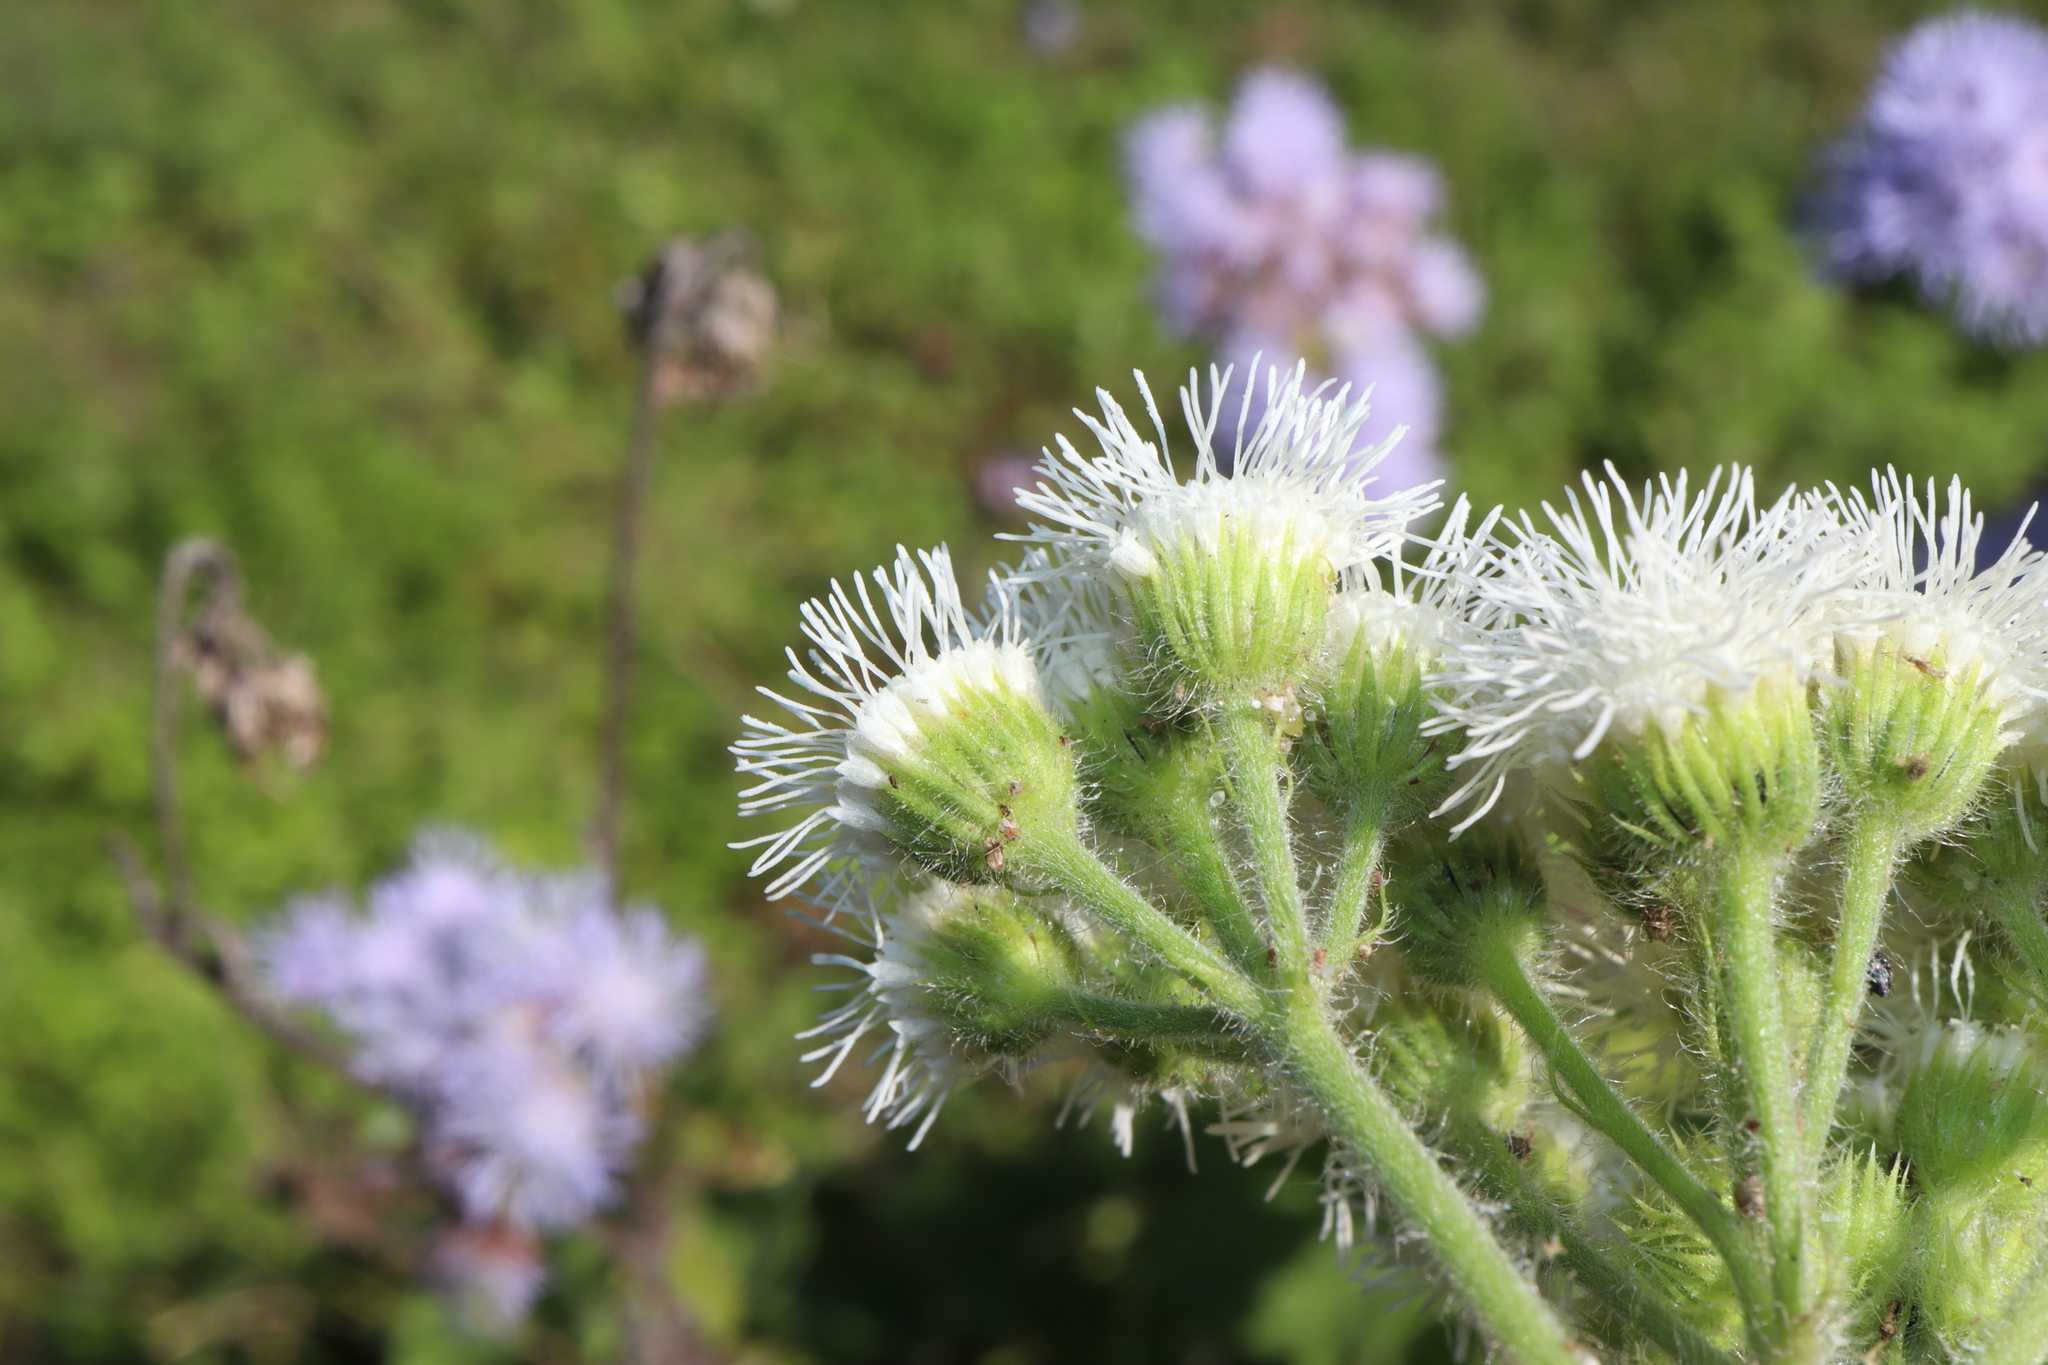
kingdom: Plantae
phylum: Tracheophyta
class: Magnoliopsida
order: Asterales
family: Asteraceae
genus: Ageratum
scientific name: Ageratum houstonianum
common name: Bluemink
